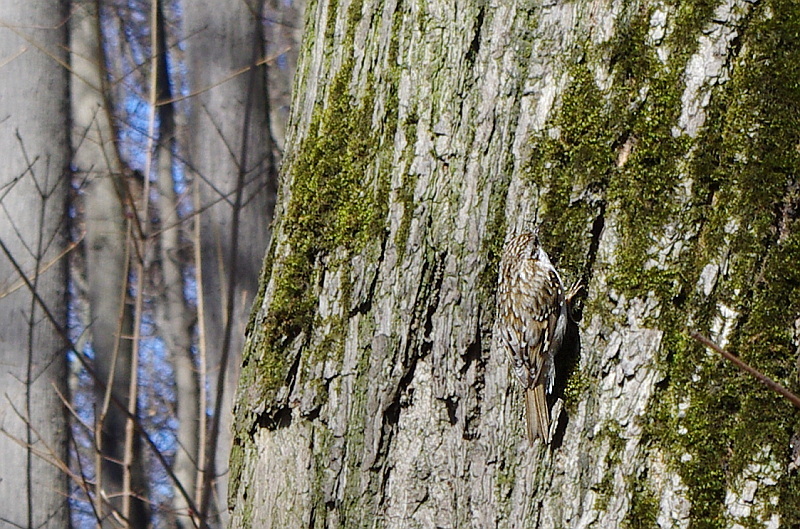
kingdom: Animalia
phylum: Chordata
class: Aves
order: Passeriformes
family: Certhiidae
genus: Certhia
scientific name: Certhia familiaris
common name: Eurasian treecreeper
